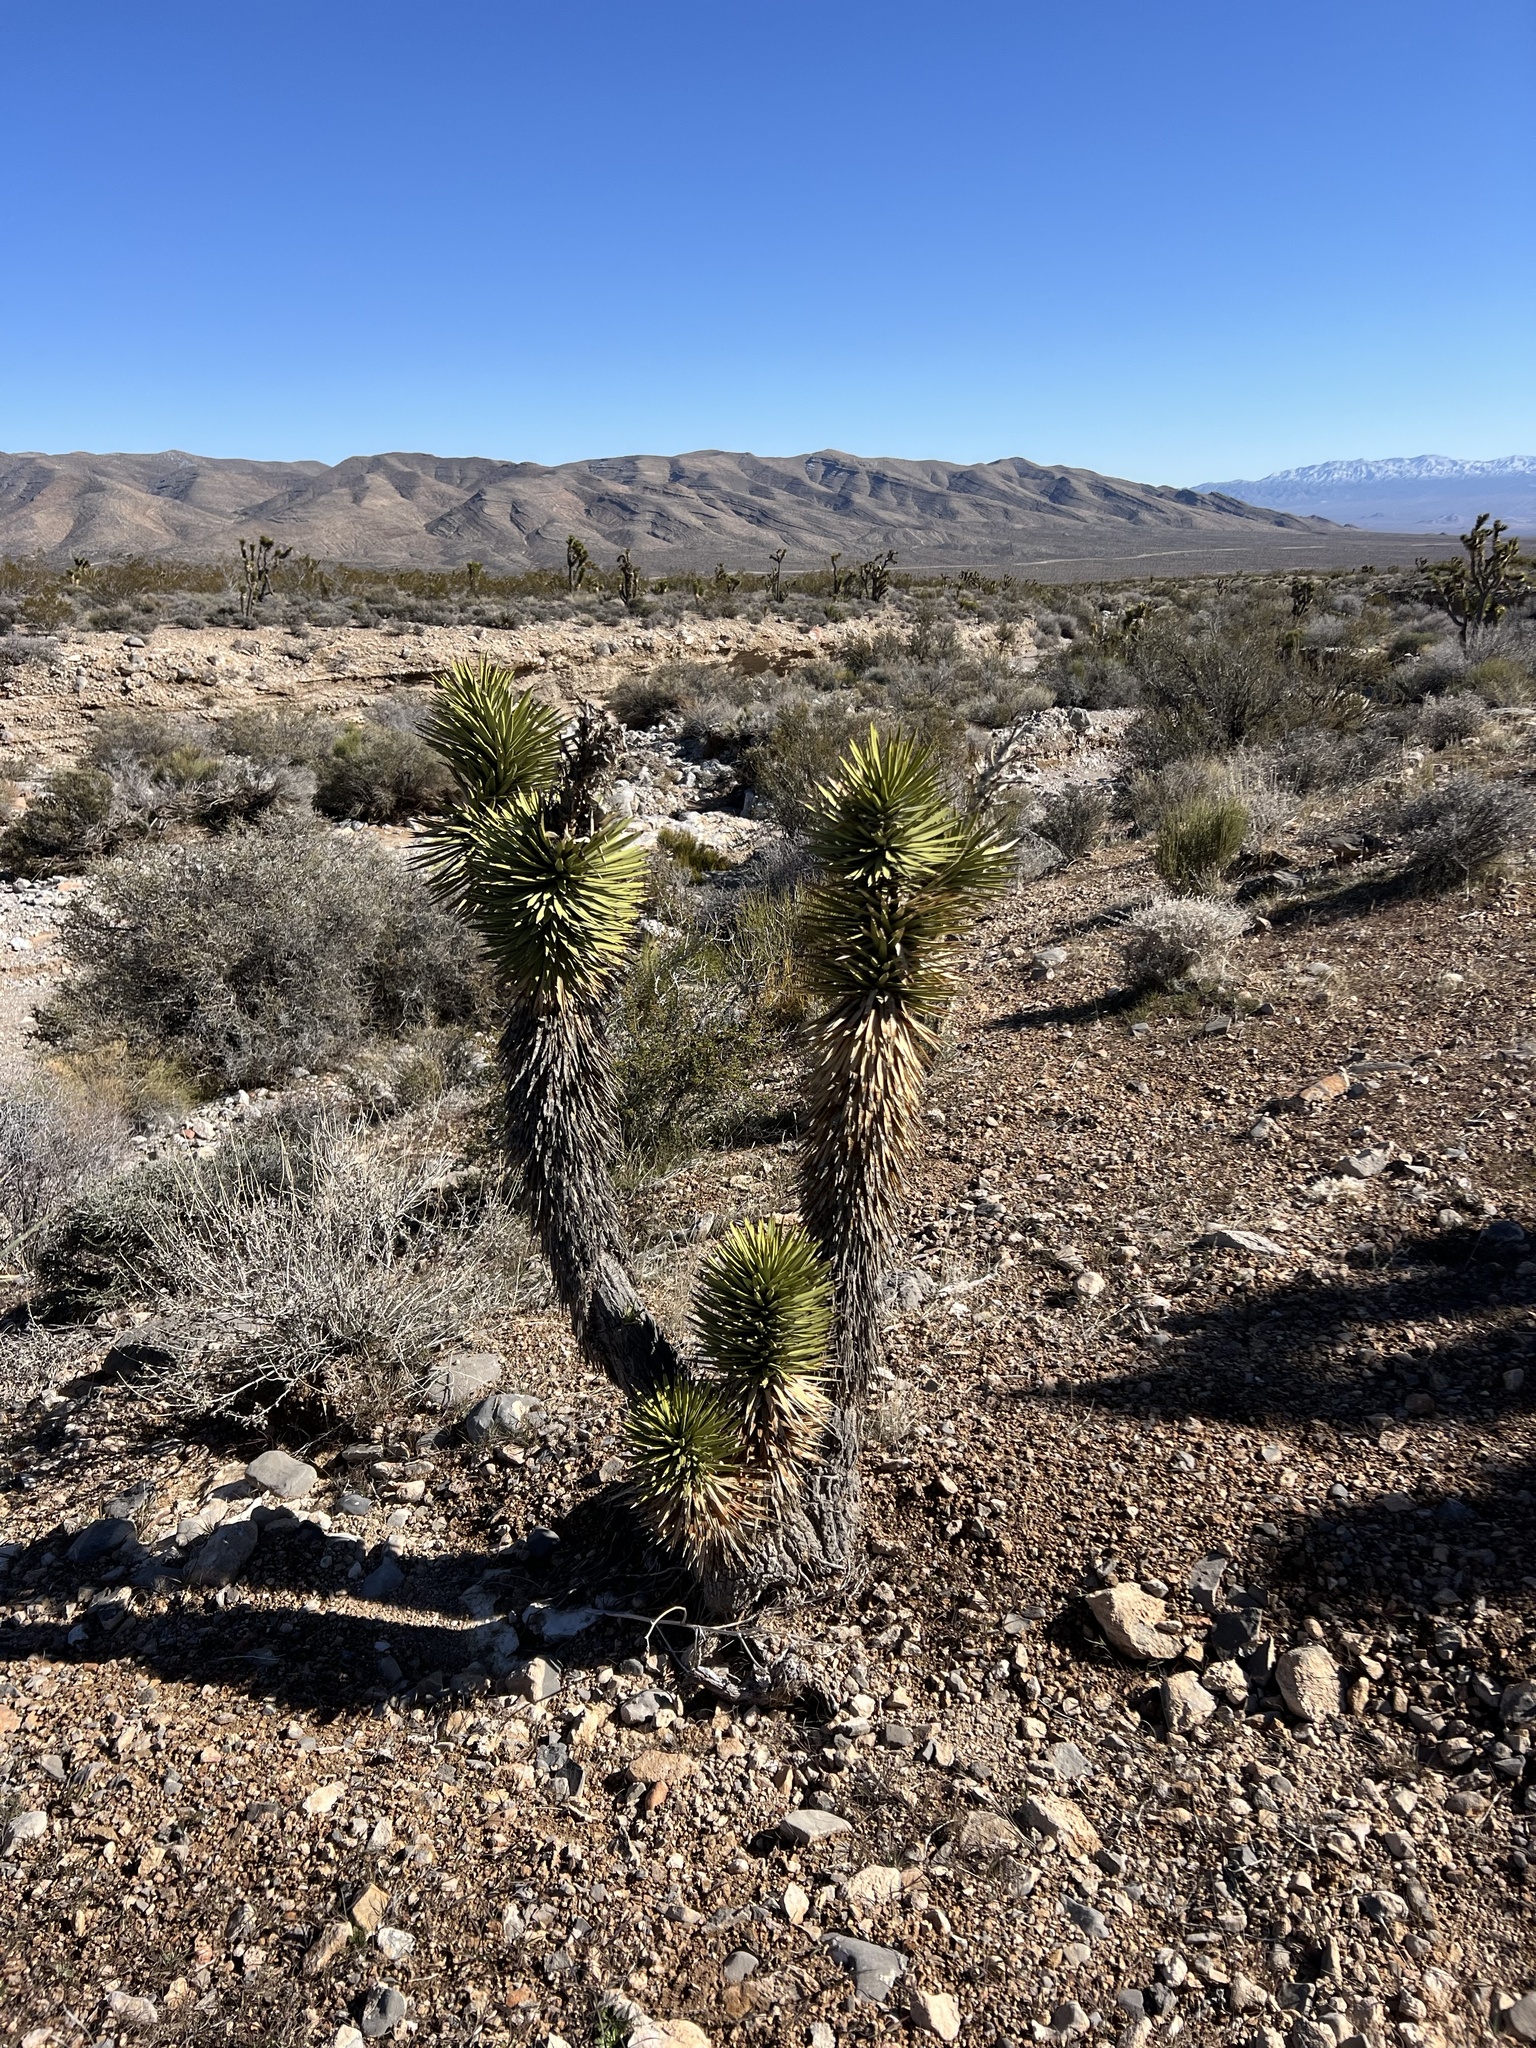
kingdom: Plantae
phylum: Tracheophyta
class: Liliopsida
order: Asparagales
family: Asparagaceae
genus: Yucca
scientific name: Yucca brevifolia
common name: Joshua tree
